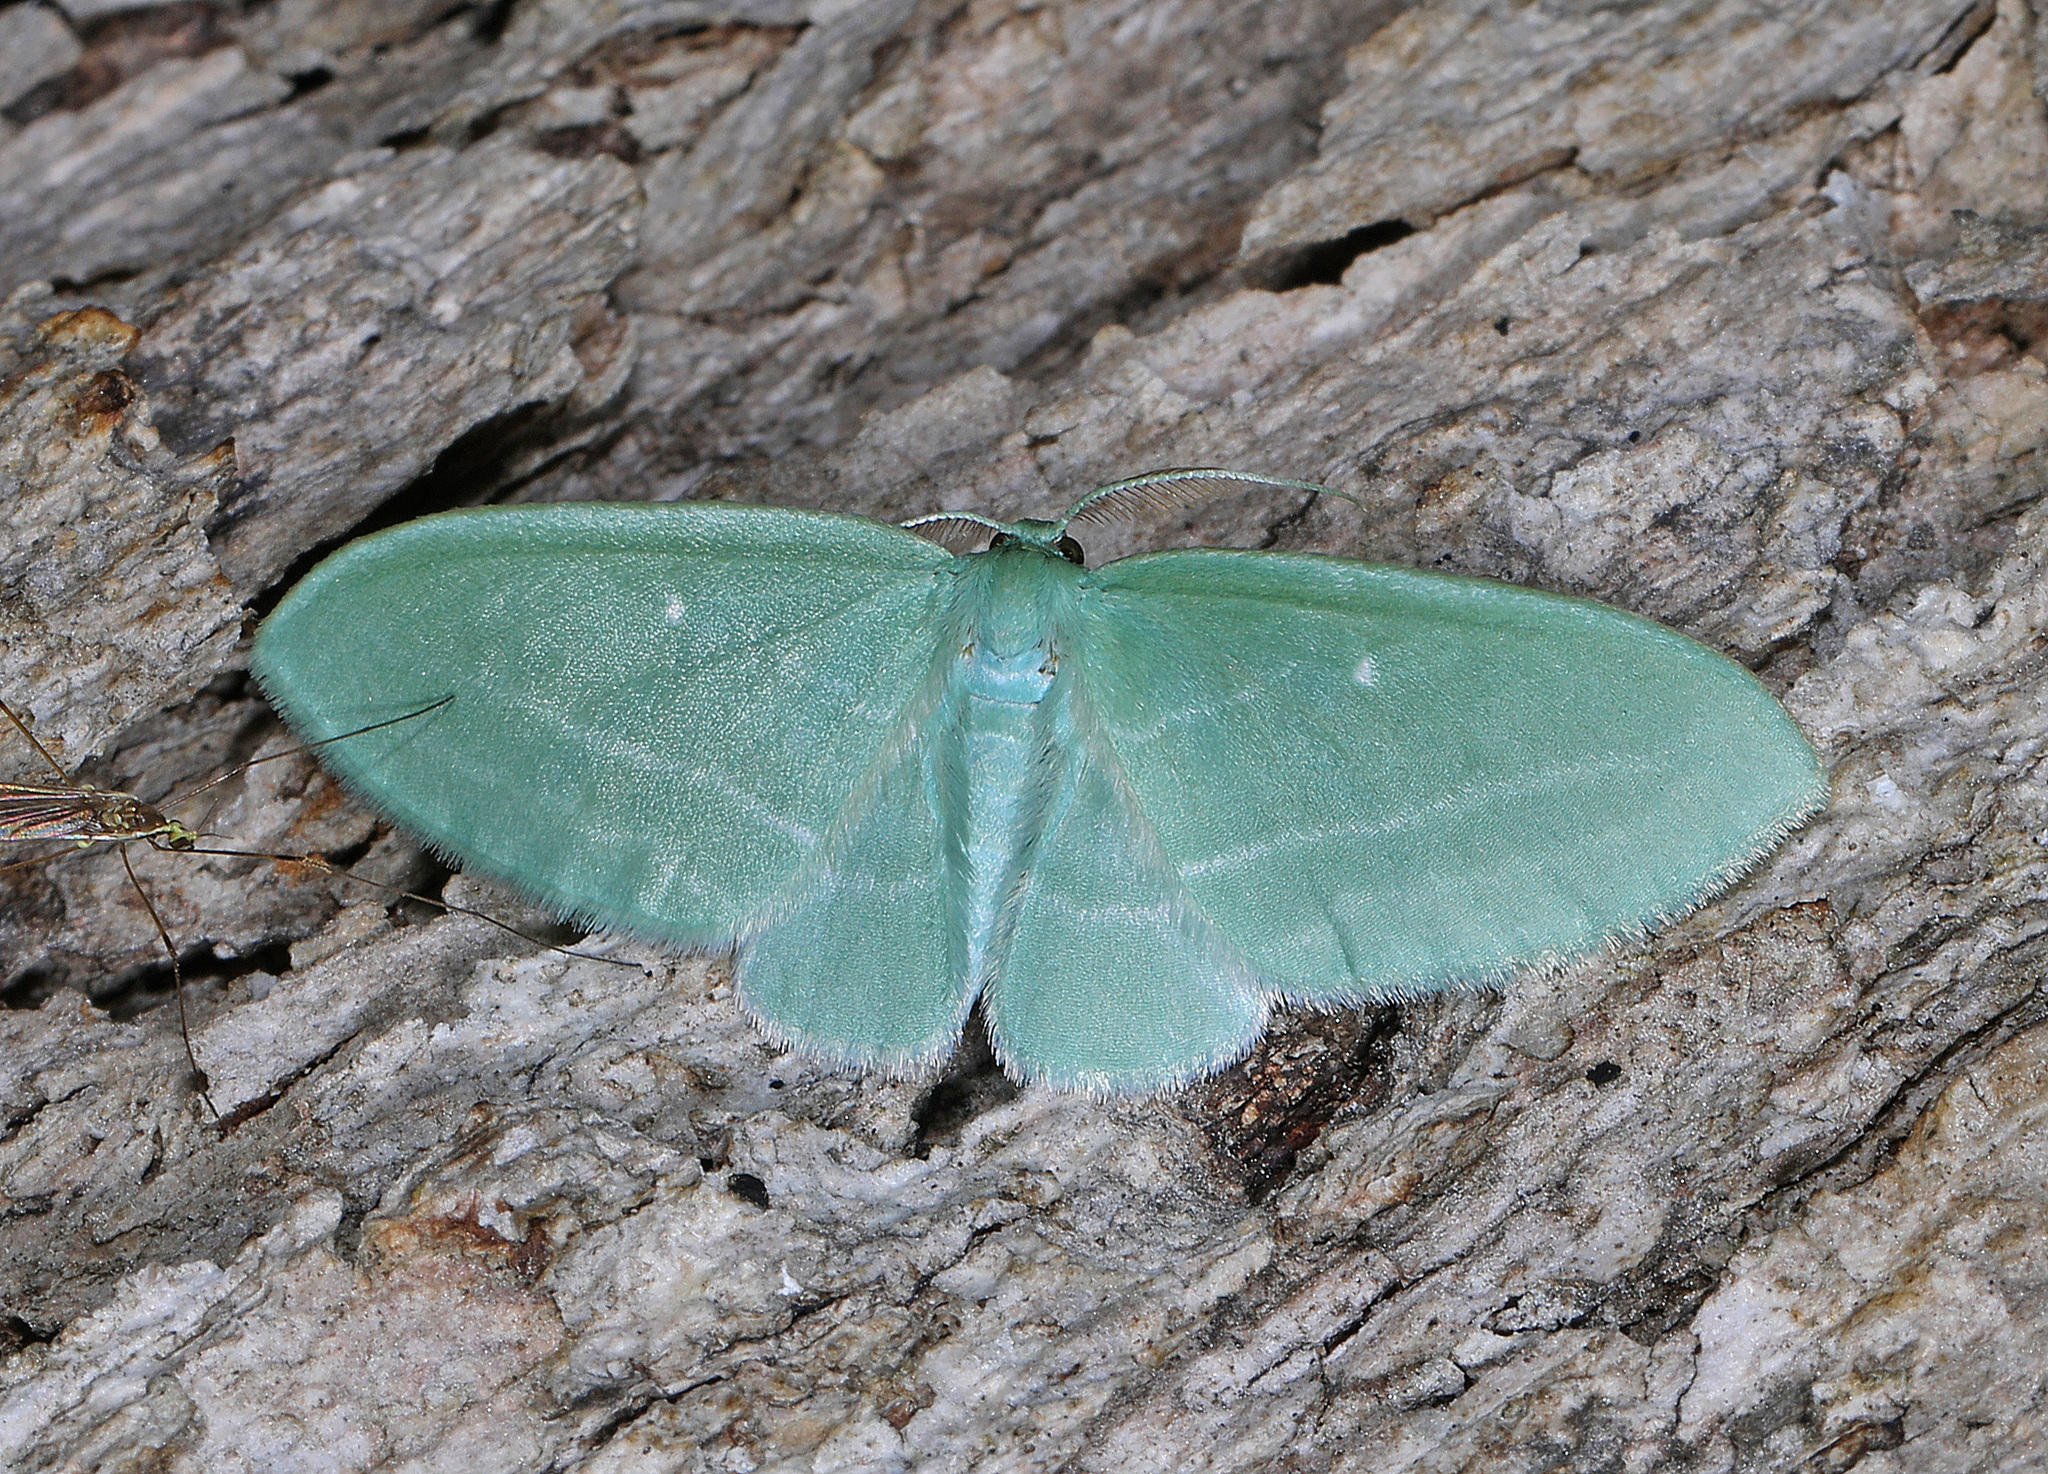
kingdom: Animalia
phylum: Arthropoda
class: Insecta
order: Lepidoptera
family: Geometridae
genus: Dyspteris
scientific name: Dyspteris abortivaria
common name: Bad-wing
